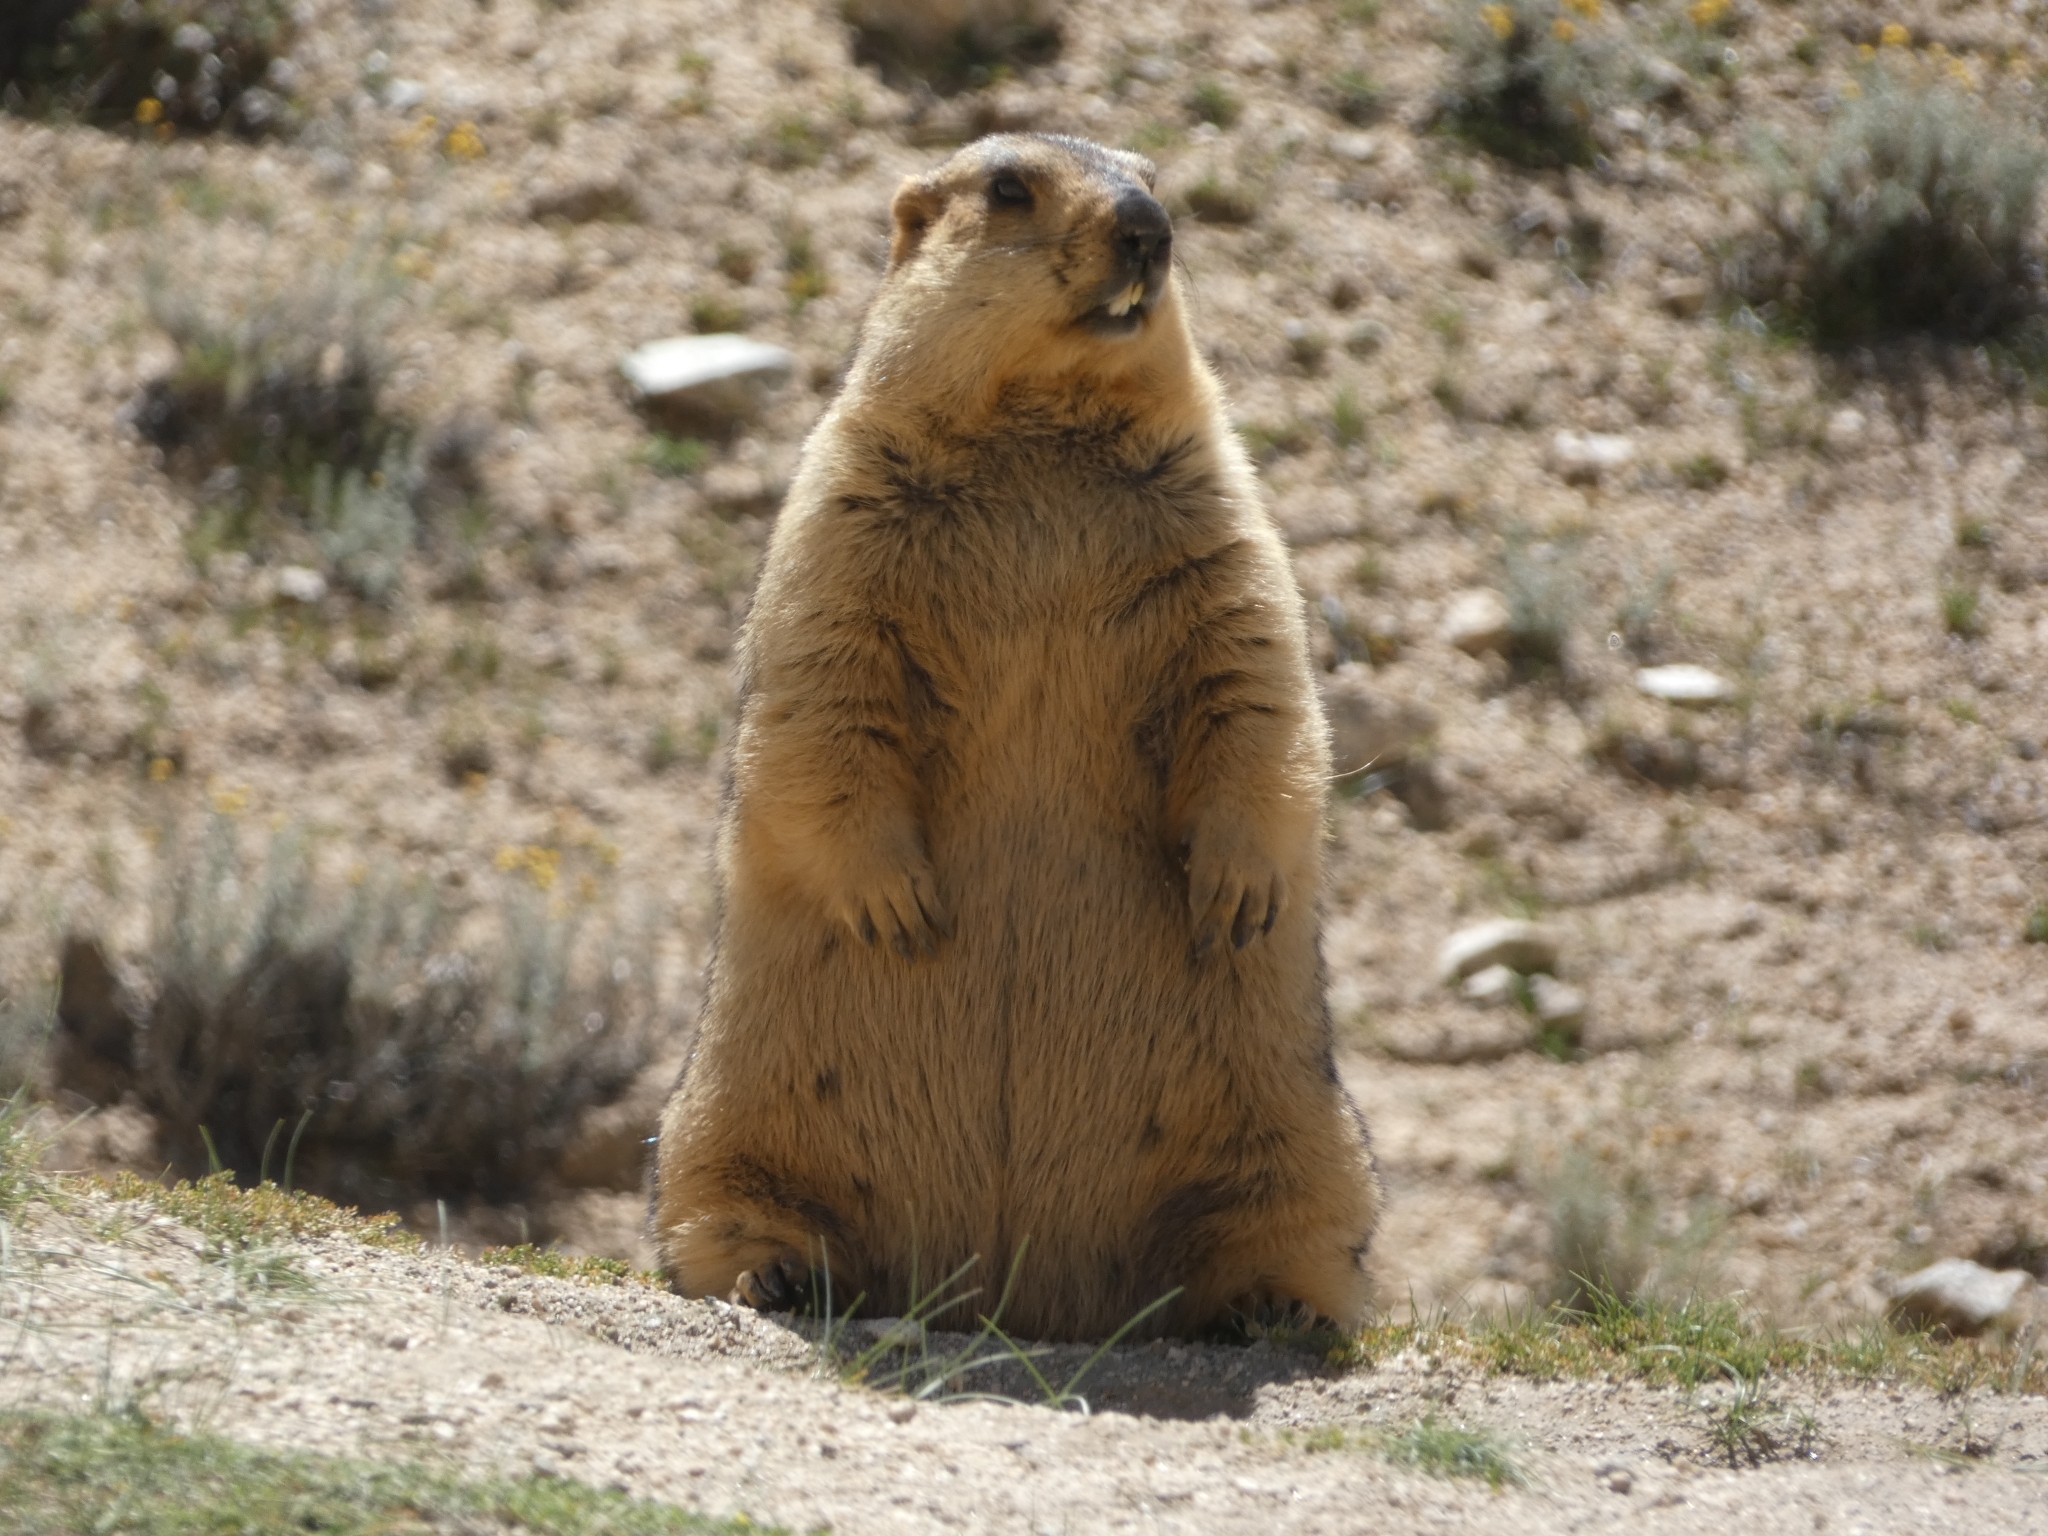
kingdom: Animalia
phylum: Chordata
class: Mammalia
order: Rodentia
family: Sciuridae
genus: Marmota
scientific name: Marmota himalayana
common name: Himalayan marmot
